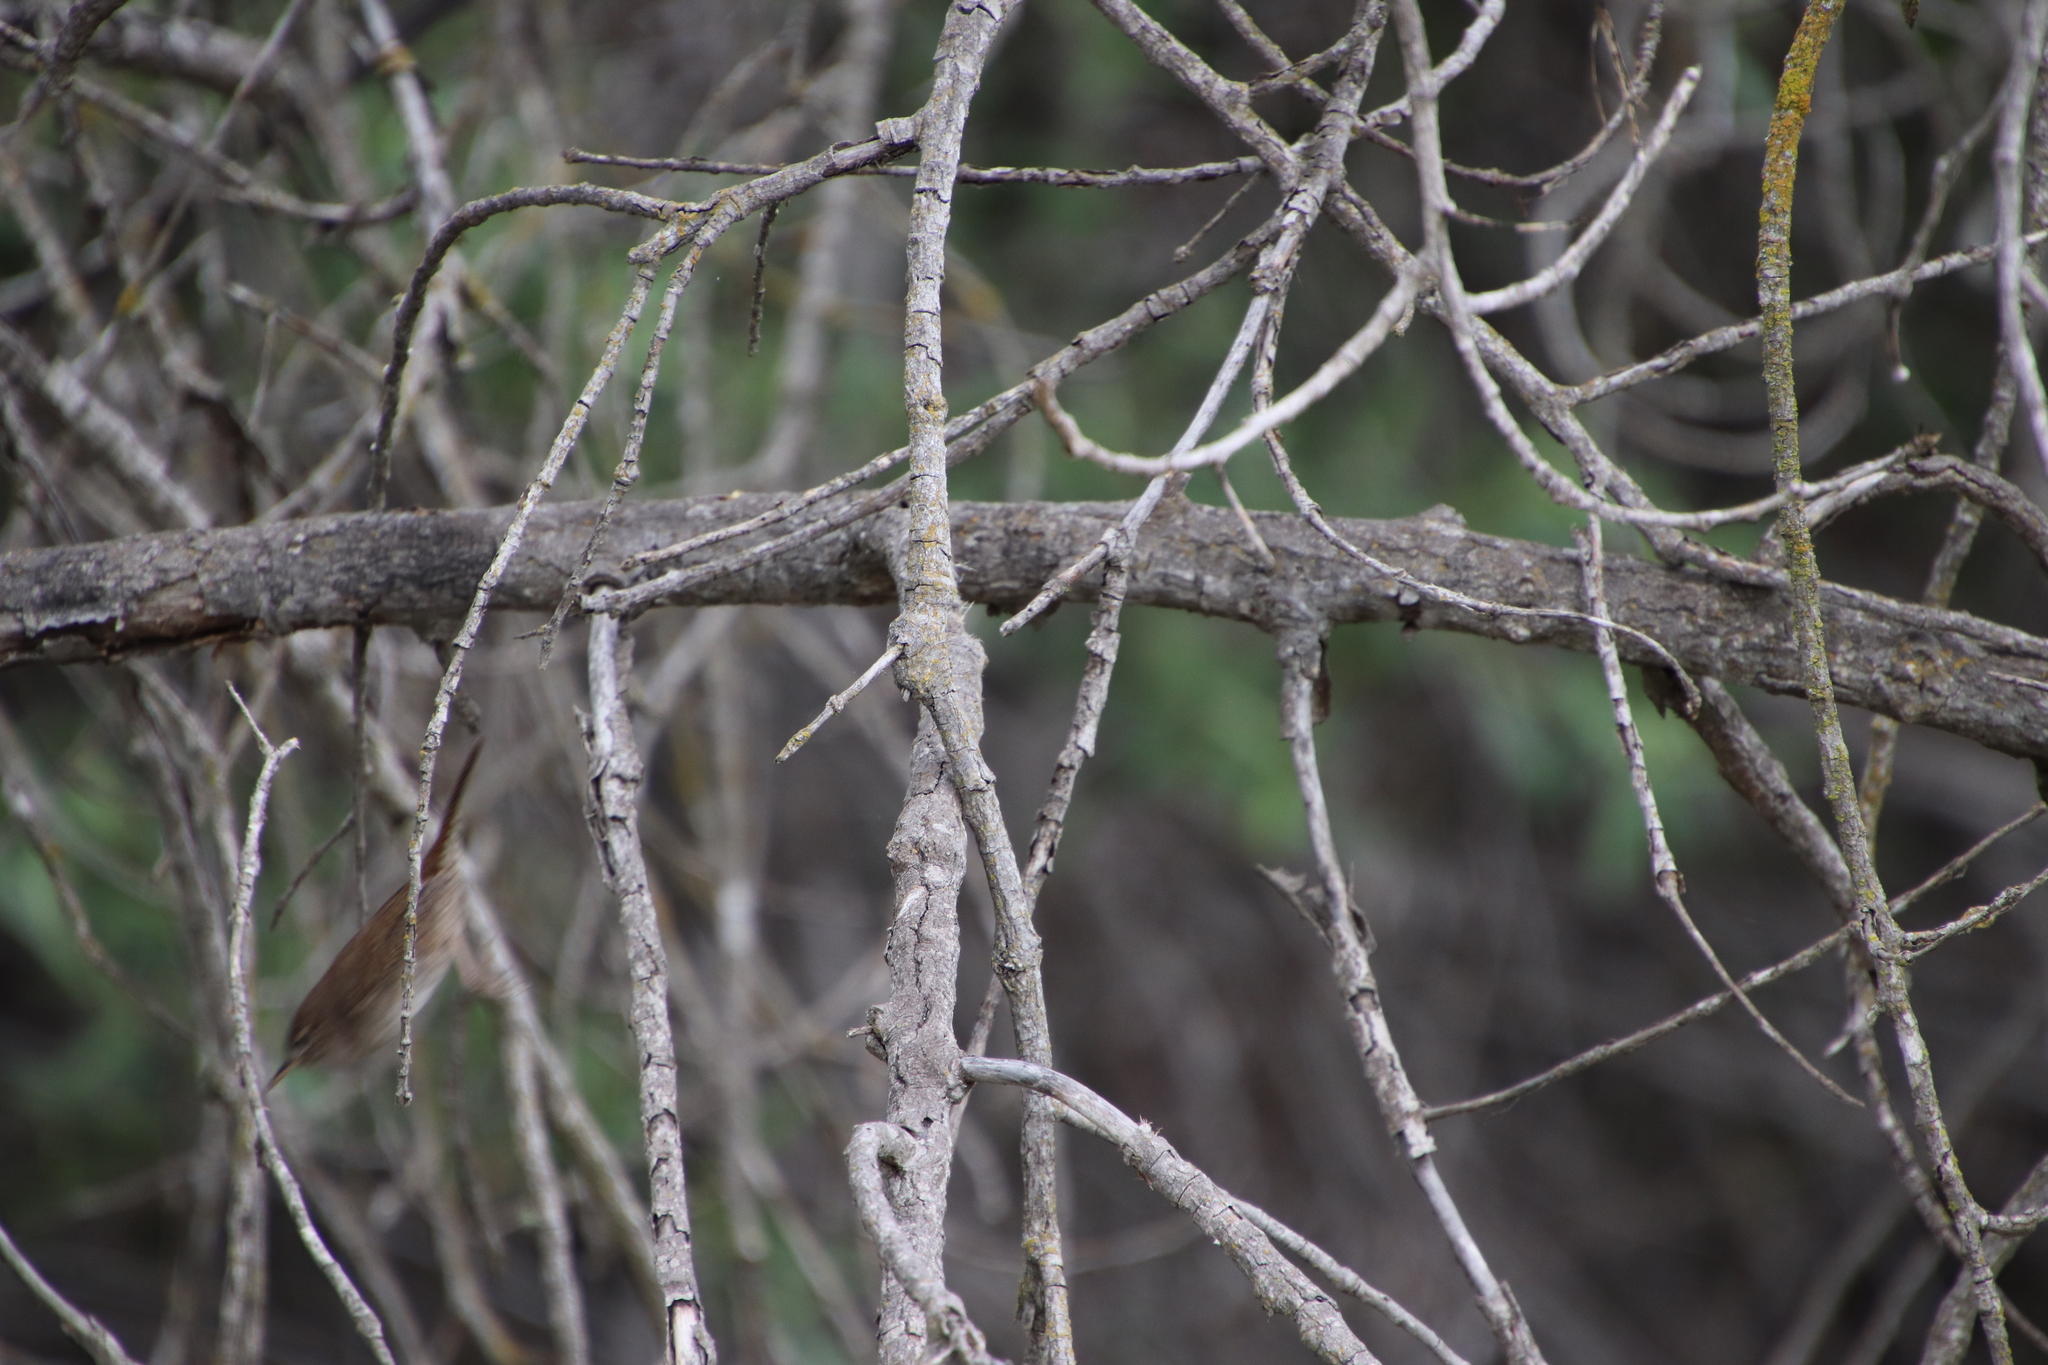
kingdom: Animalia
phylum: Chordata
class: Aves
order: Passeriformes
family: Troglodytidae
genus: Troglodytes
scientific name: Troglodytes aedon
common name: House wren
